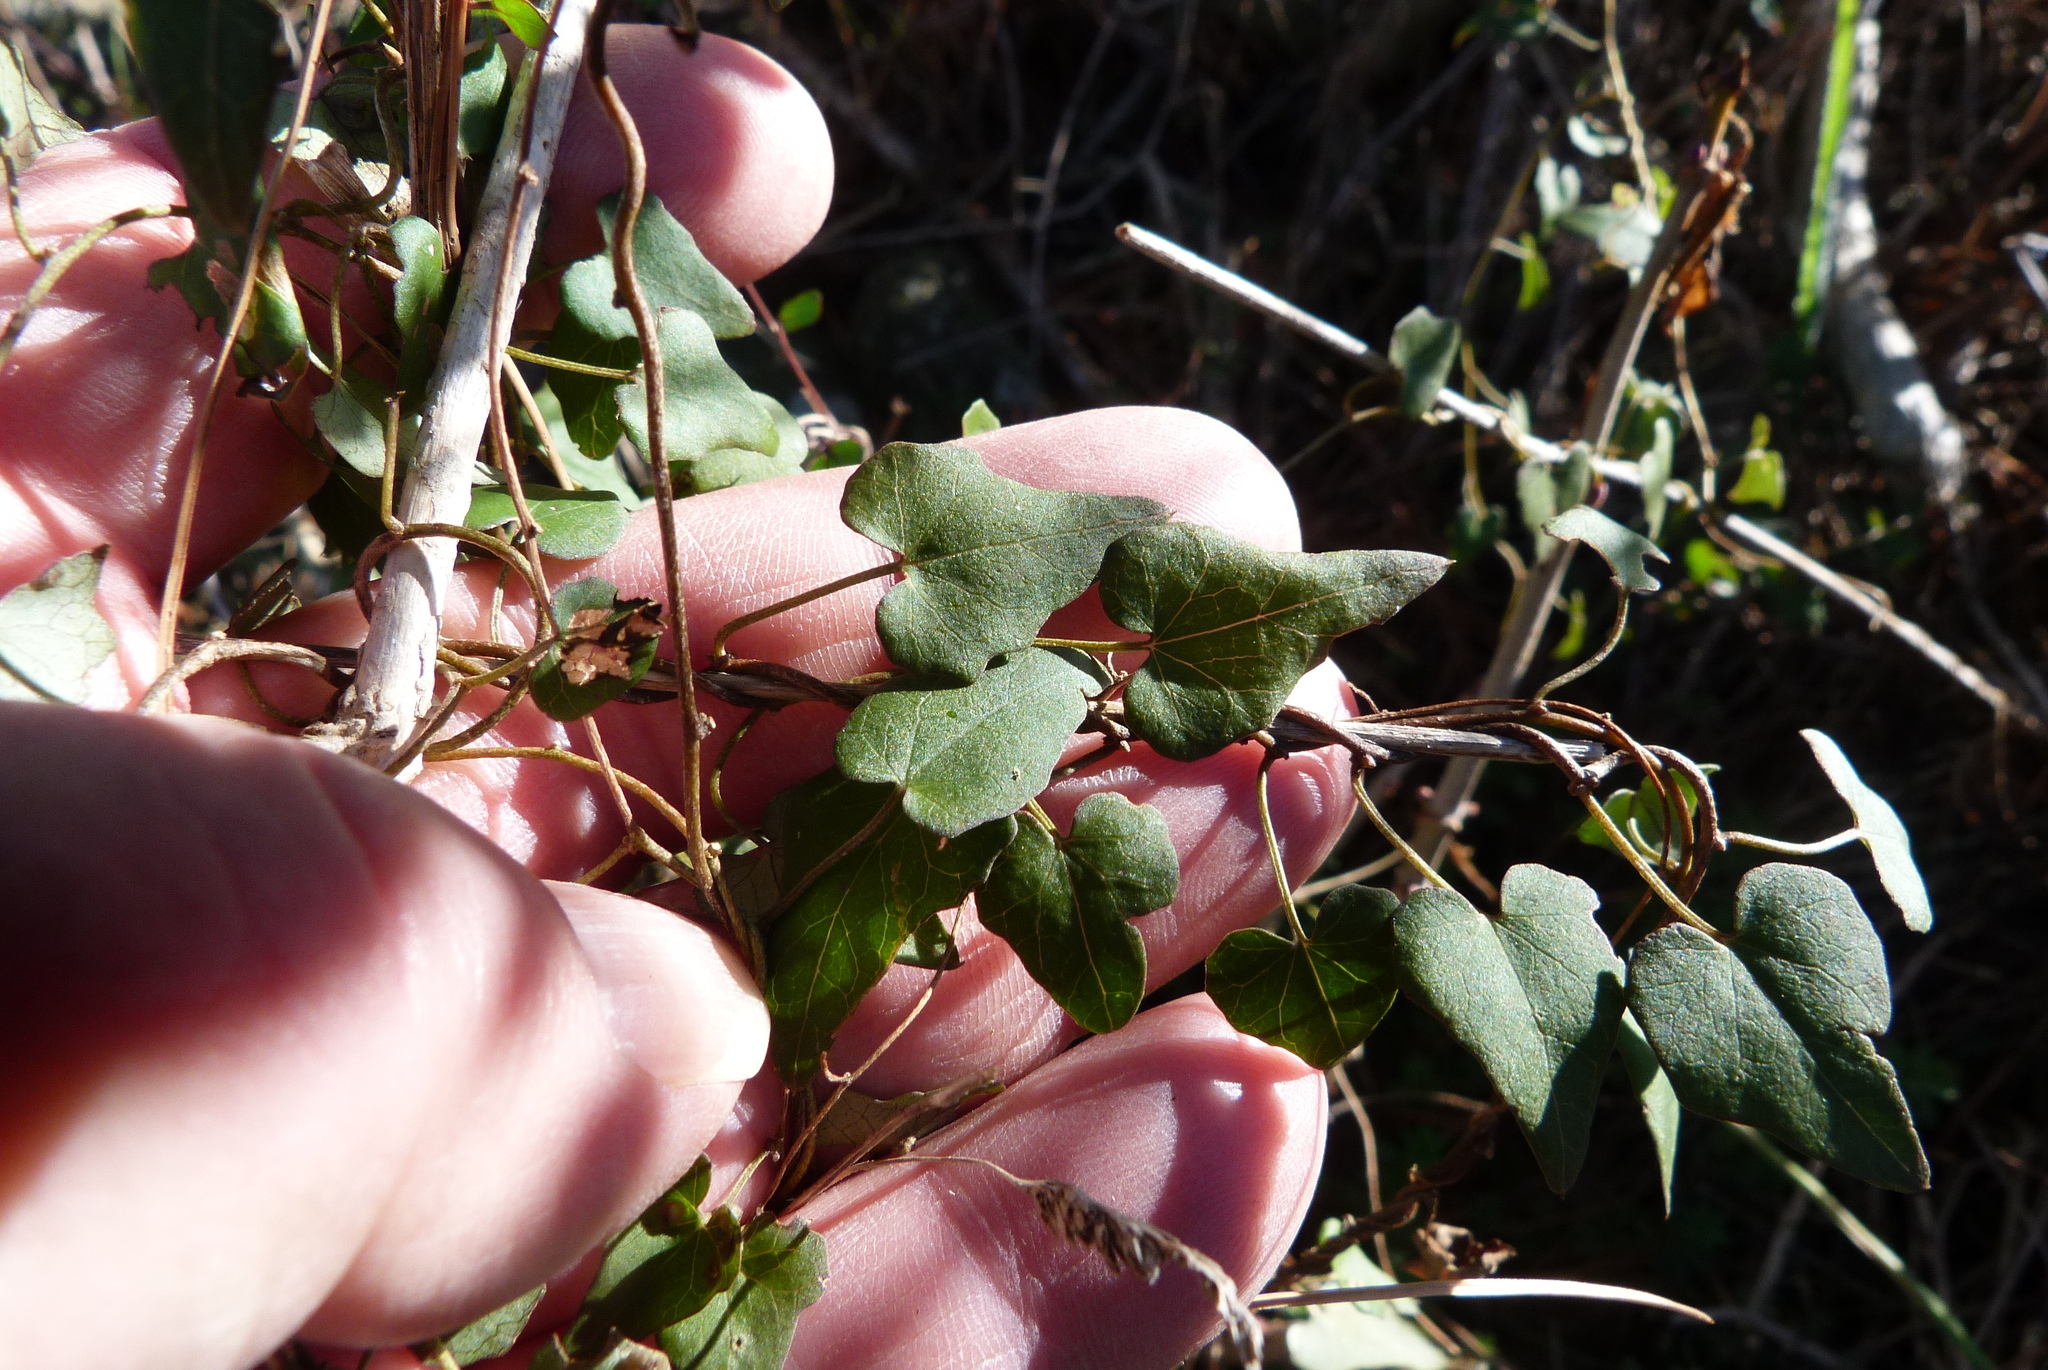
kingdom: Plantae
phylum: Tracheophyta
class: Magnoliopsida
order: Solanales
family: Convolvulaceae
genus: Calystegia
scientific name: Calystegia tuguriorum
